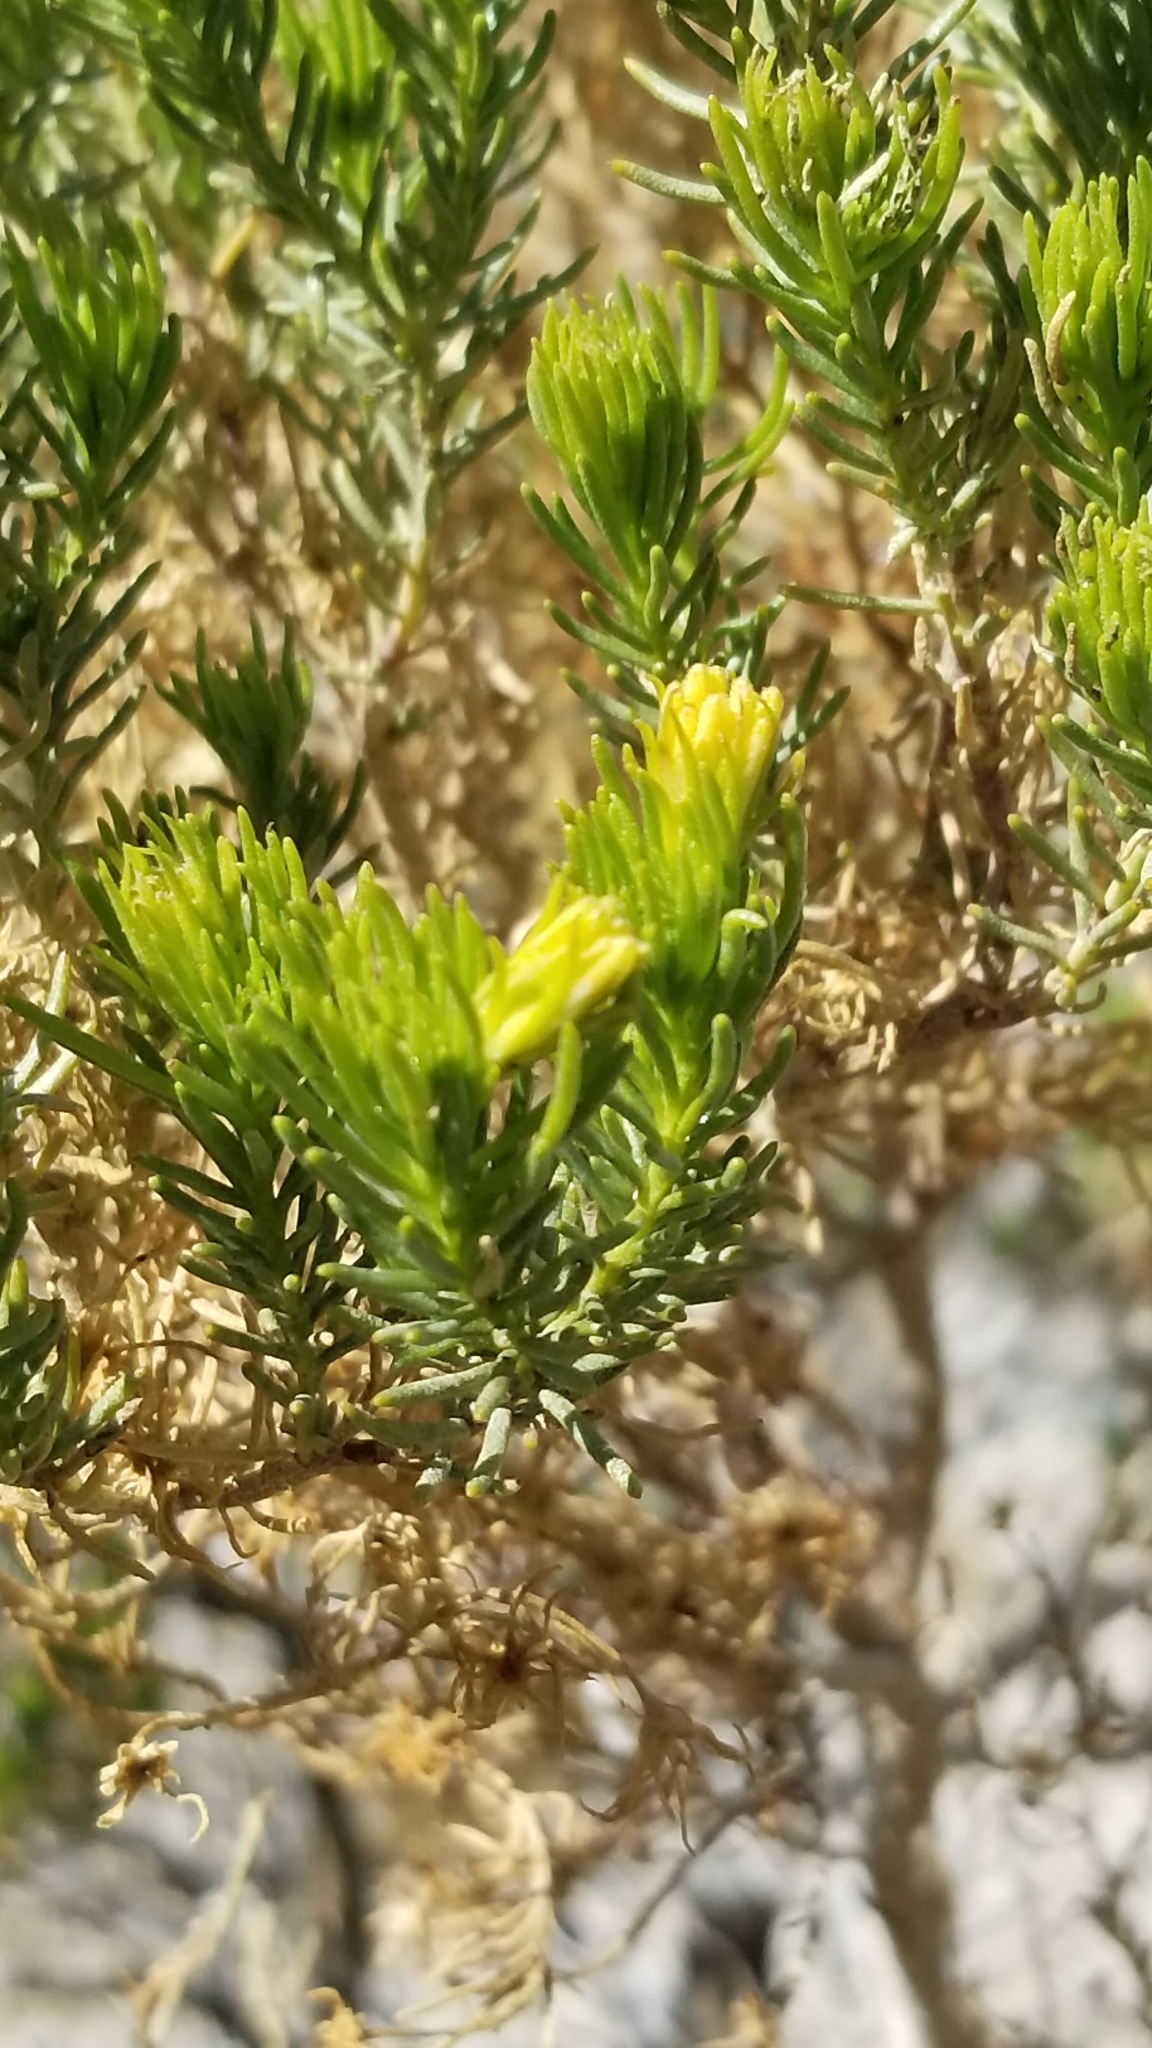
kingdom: Plantae
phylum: Tracheophyta
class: Magnoliopsida
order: Asterales
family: Asteraceae
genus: Peucephyllum
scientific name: Peucephyllum schottii
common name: Pygmy-cedar
